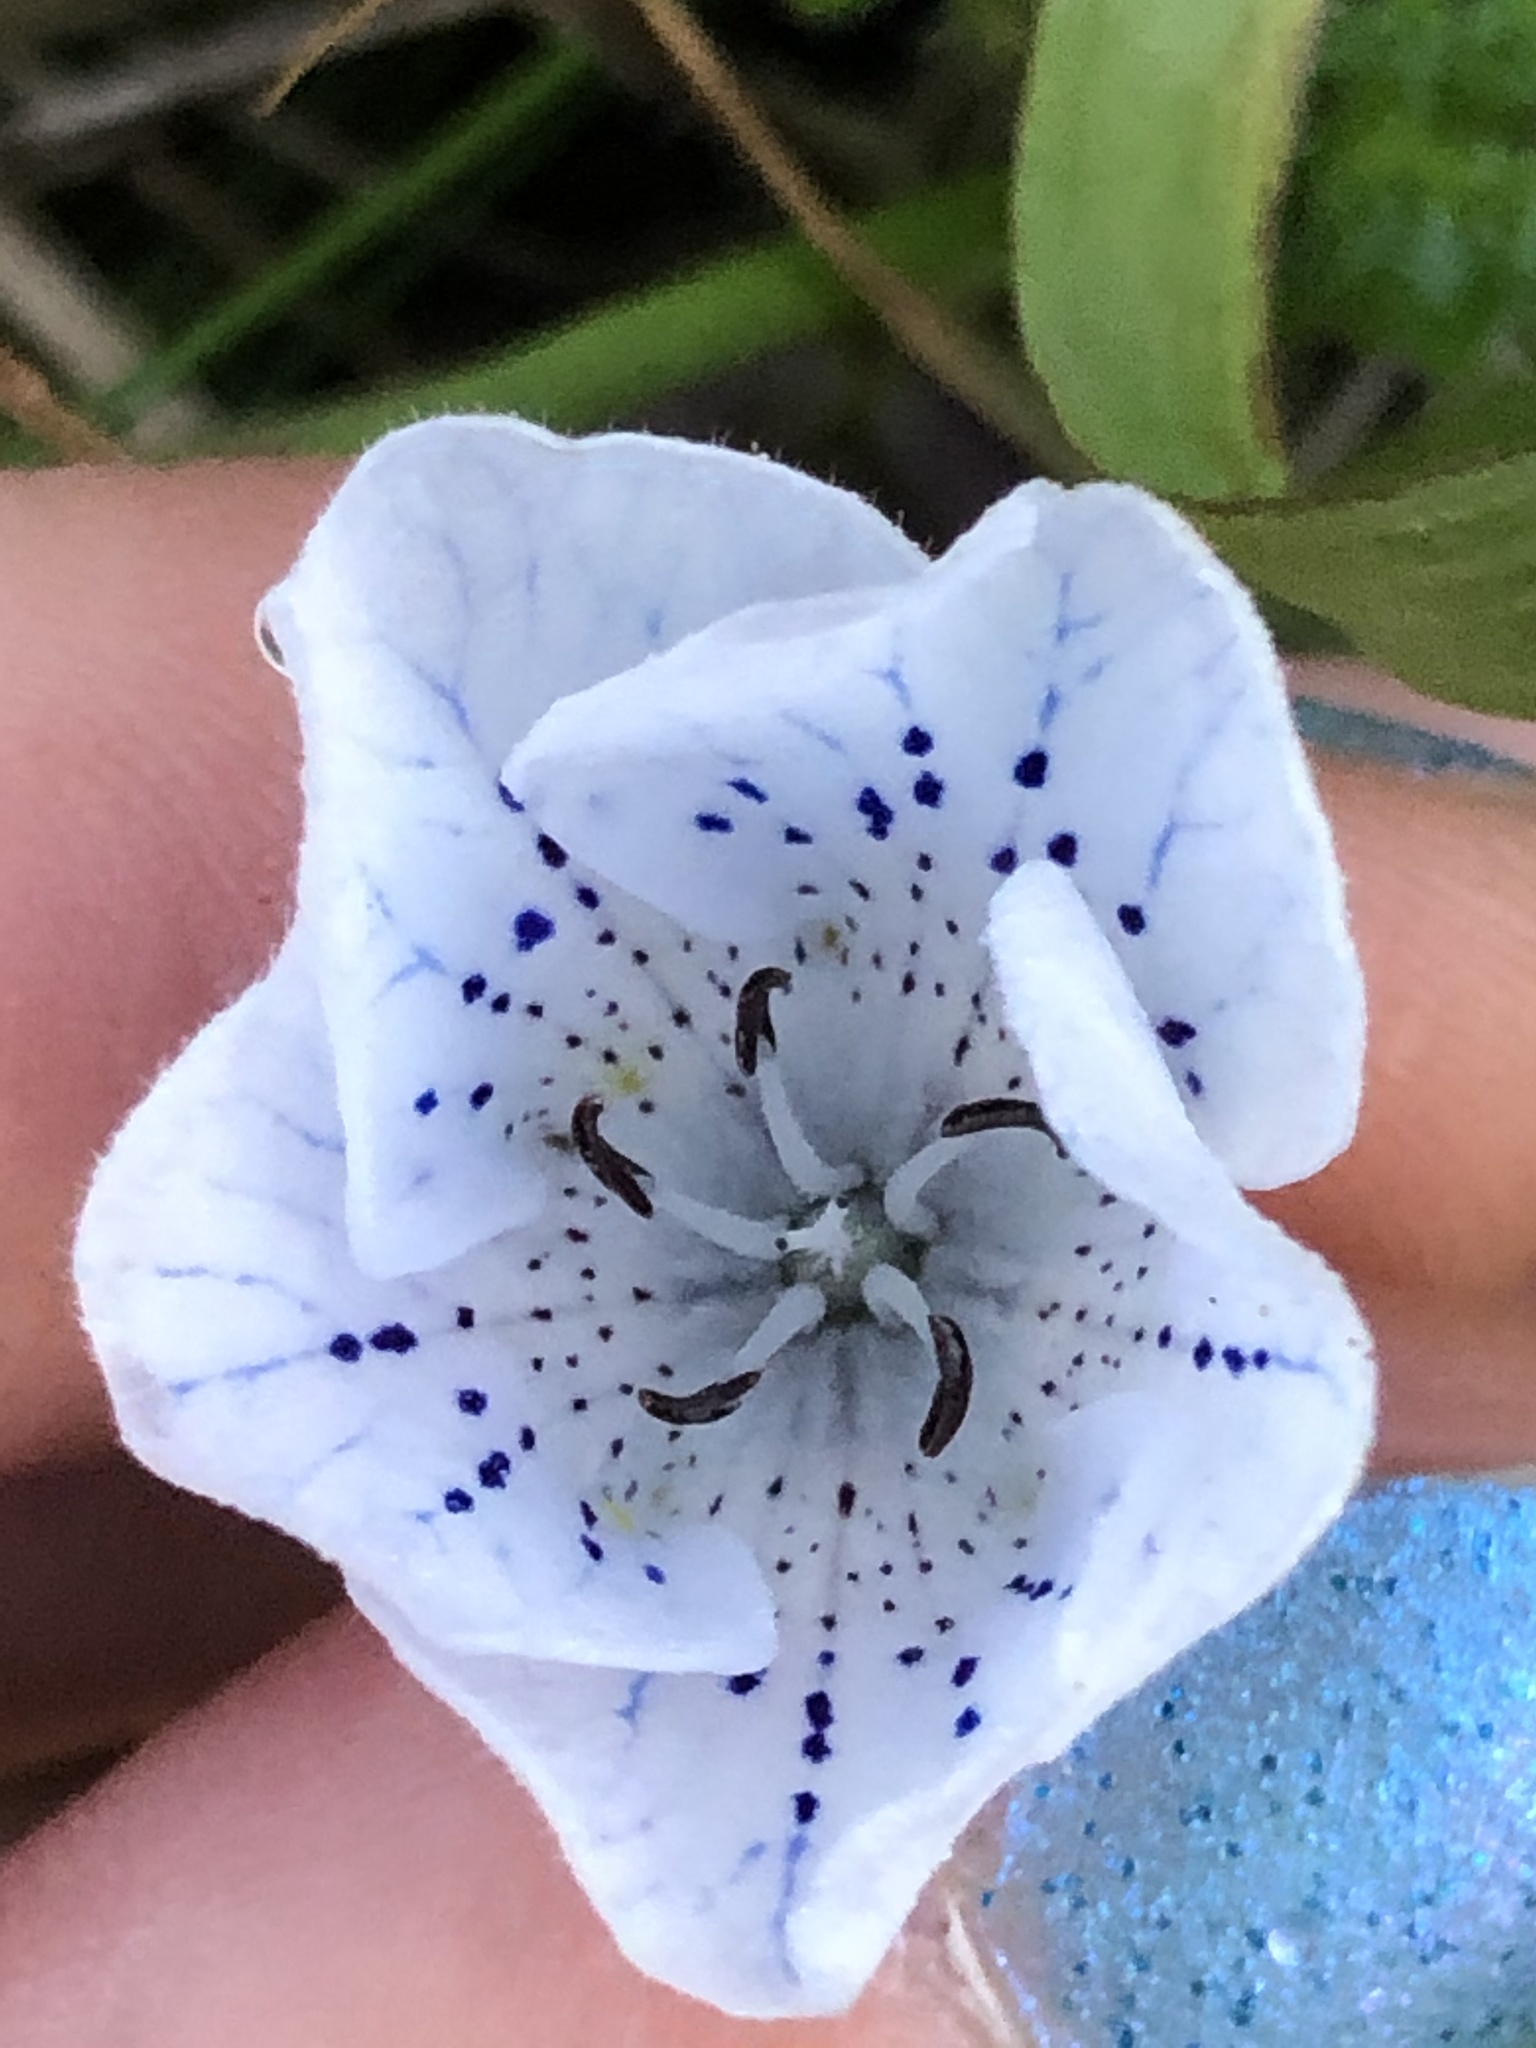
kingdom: Plantae
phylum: Tracheophyta
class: Magnoliopsida
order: Boraginales
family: Hydrophyllaceae
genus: Nemophila
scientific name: Nemophila menziesii
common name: Baby's-blue-eyes
